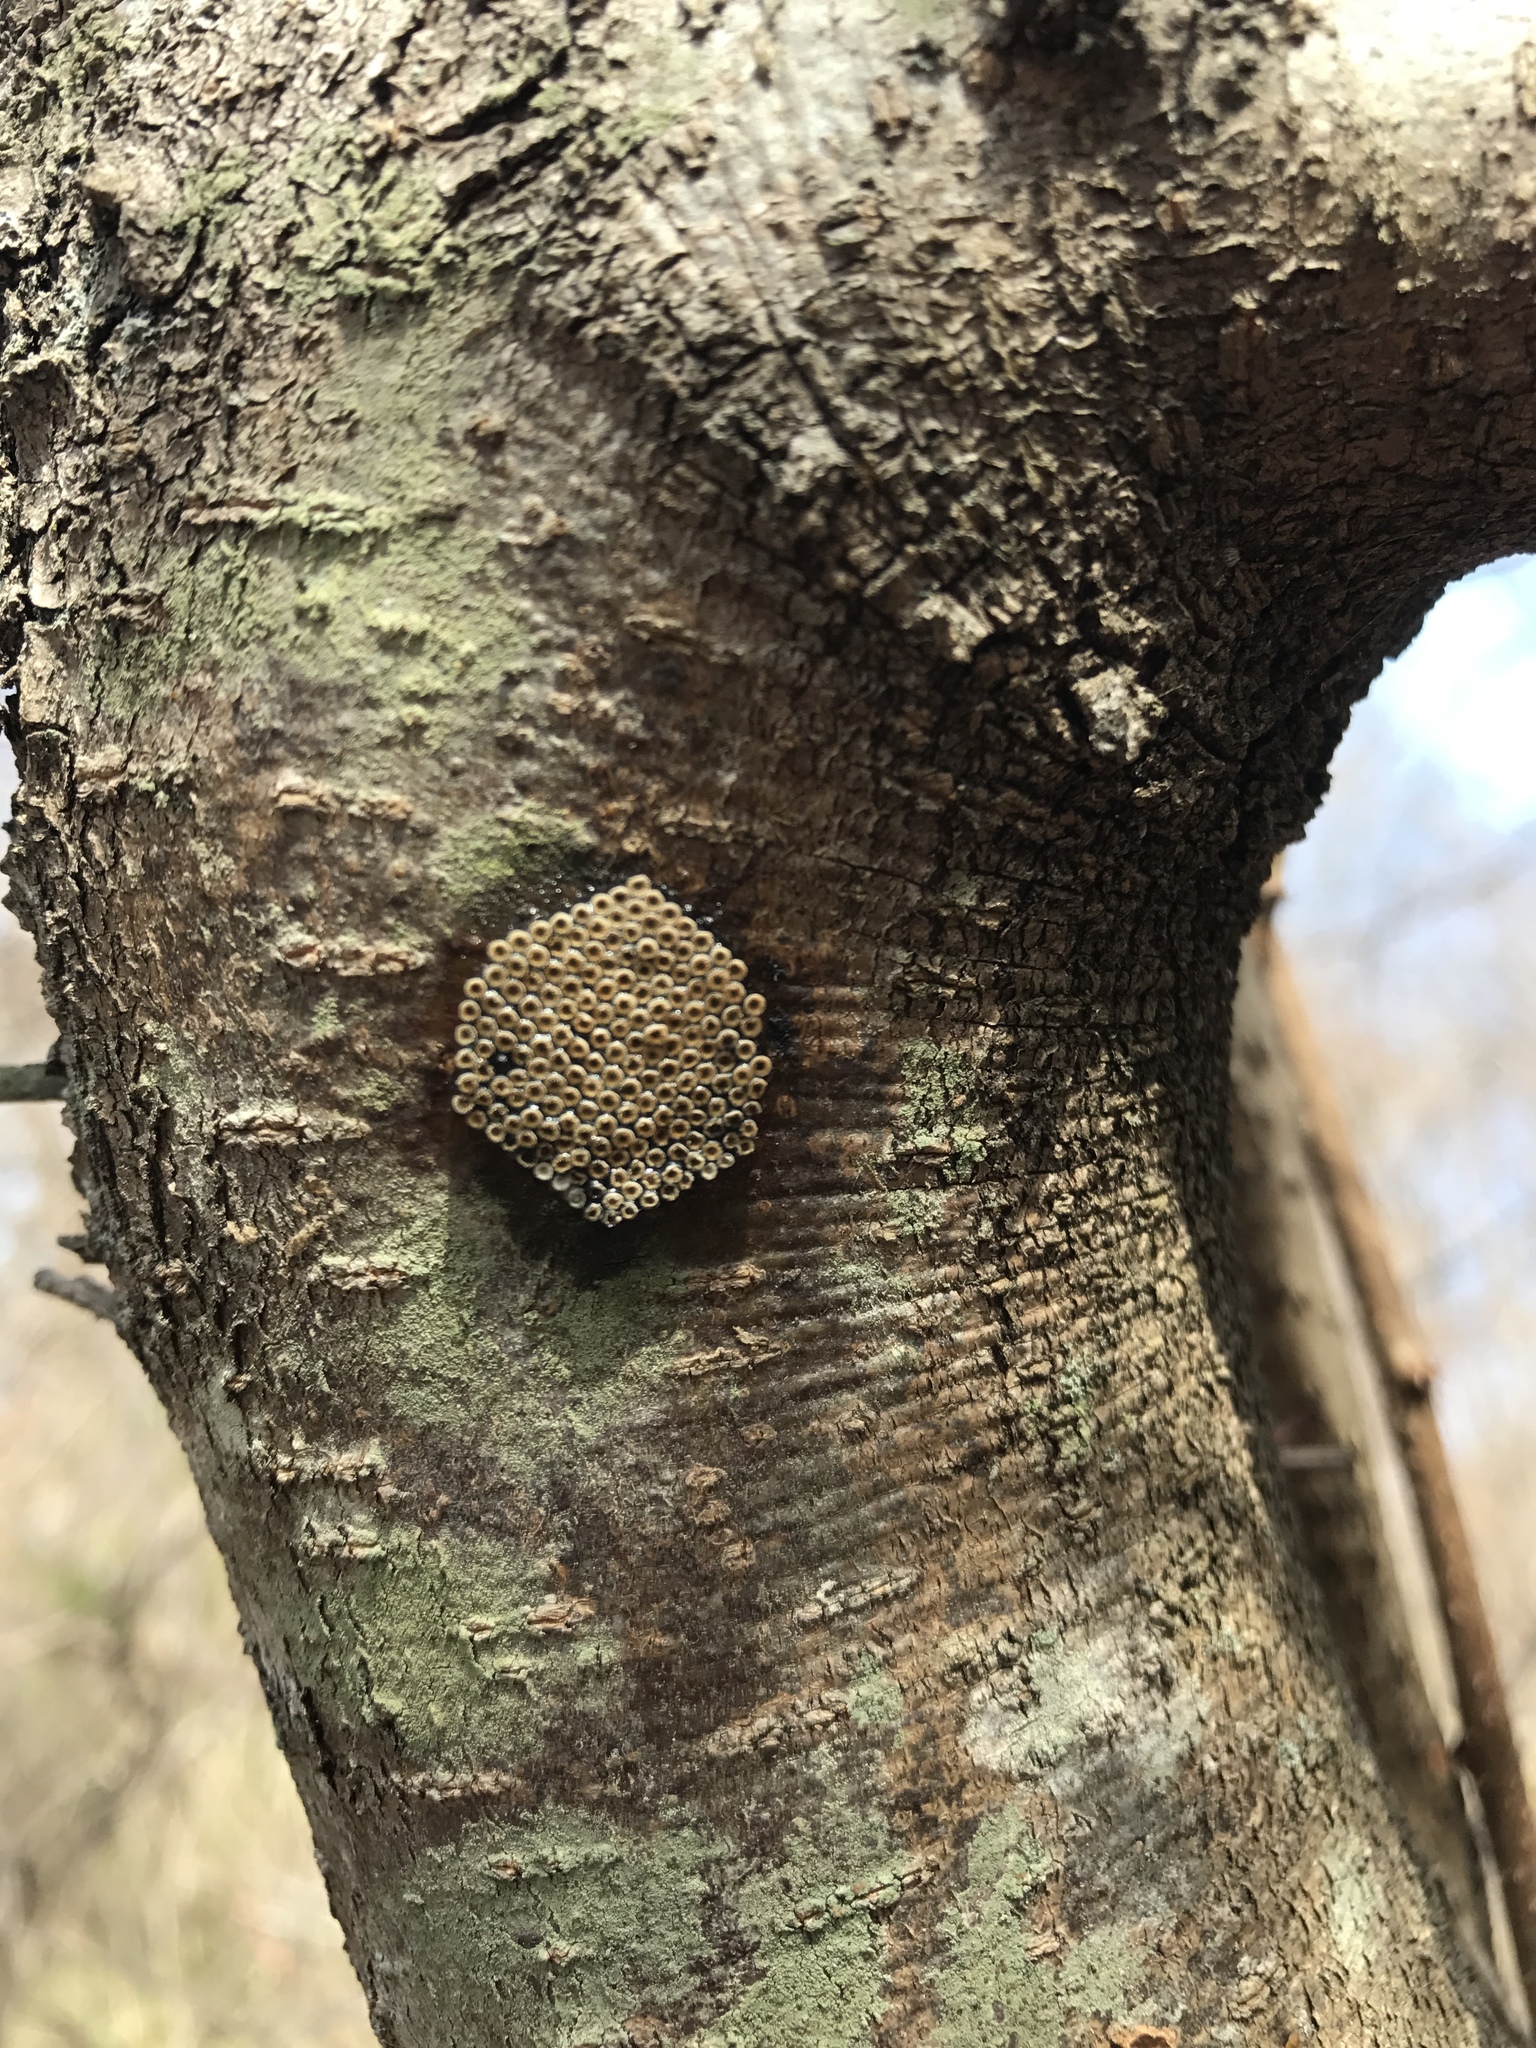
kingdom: Animalia
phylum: Arthropoda
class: Insecta
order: Hemiptera
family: Reduviidae
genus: Arilus
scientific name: Arilus cristatus
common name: North american wheel bug
